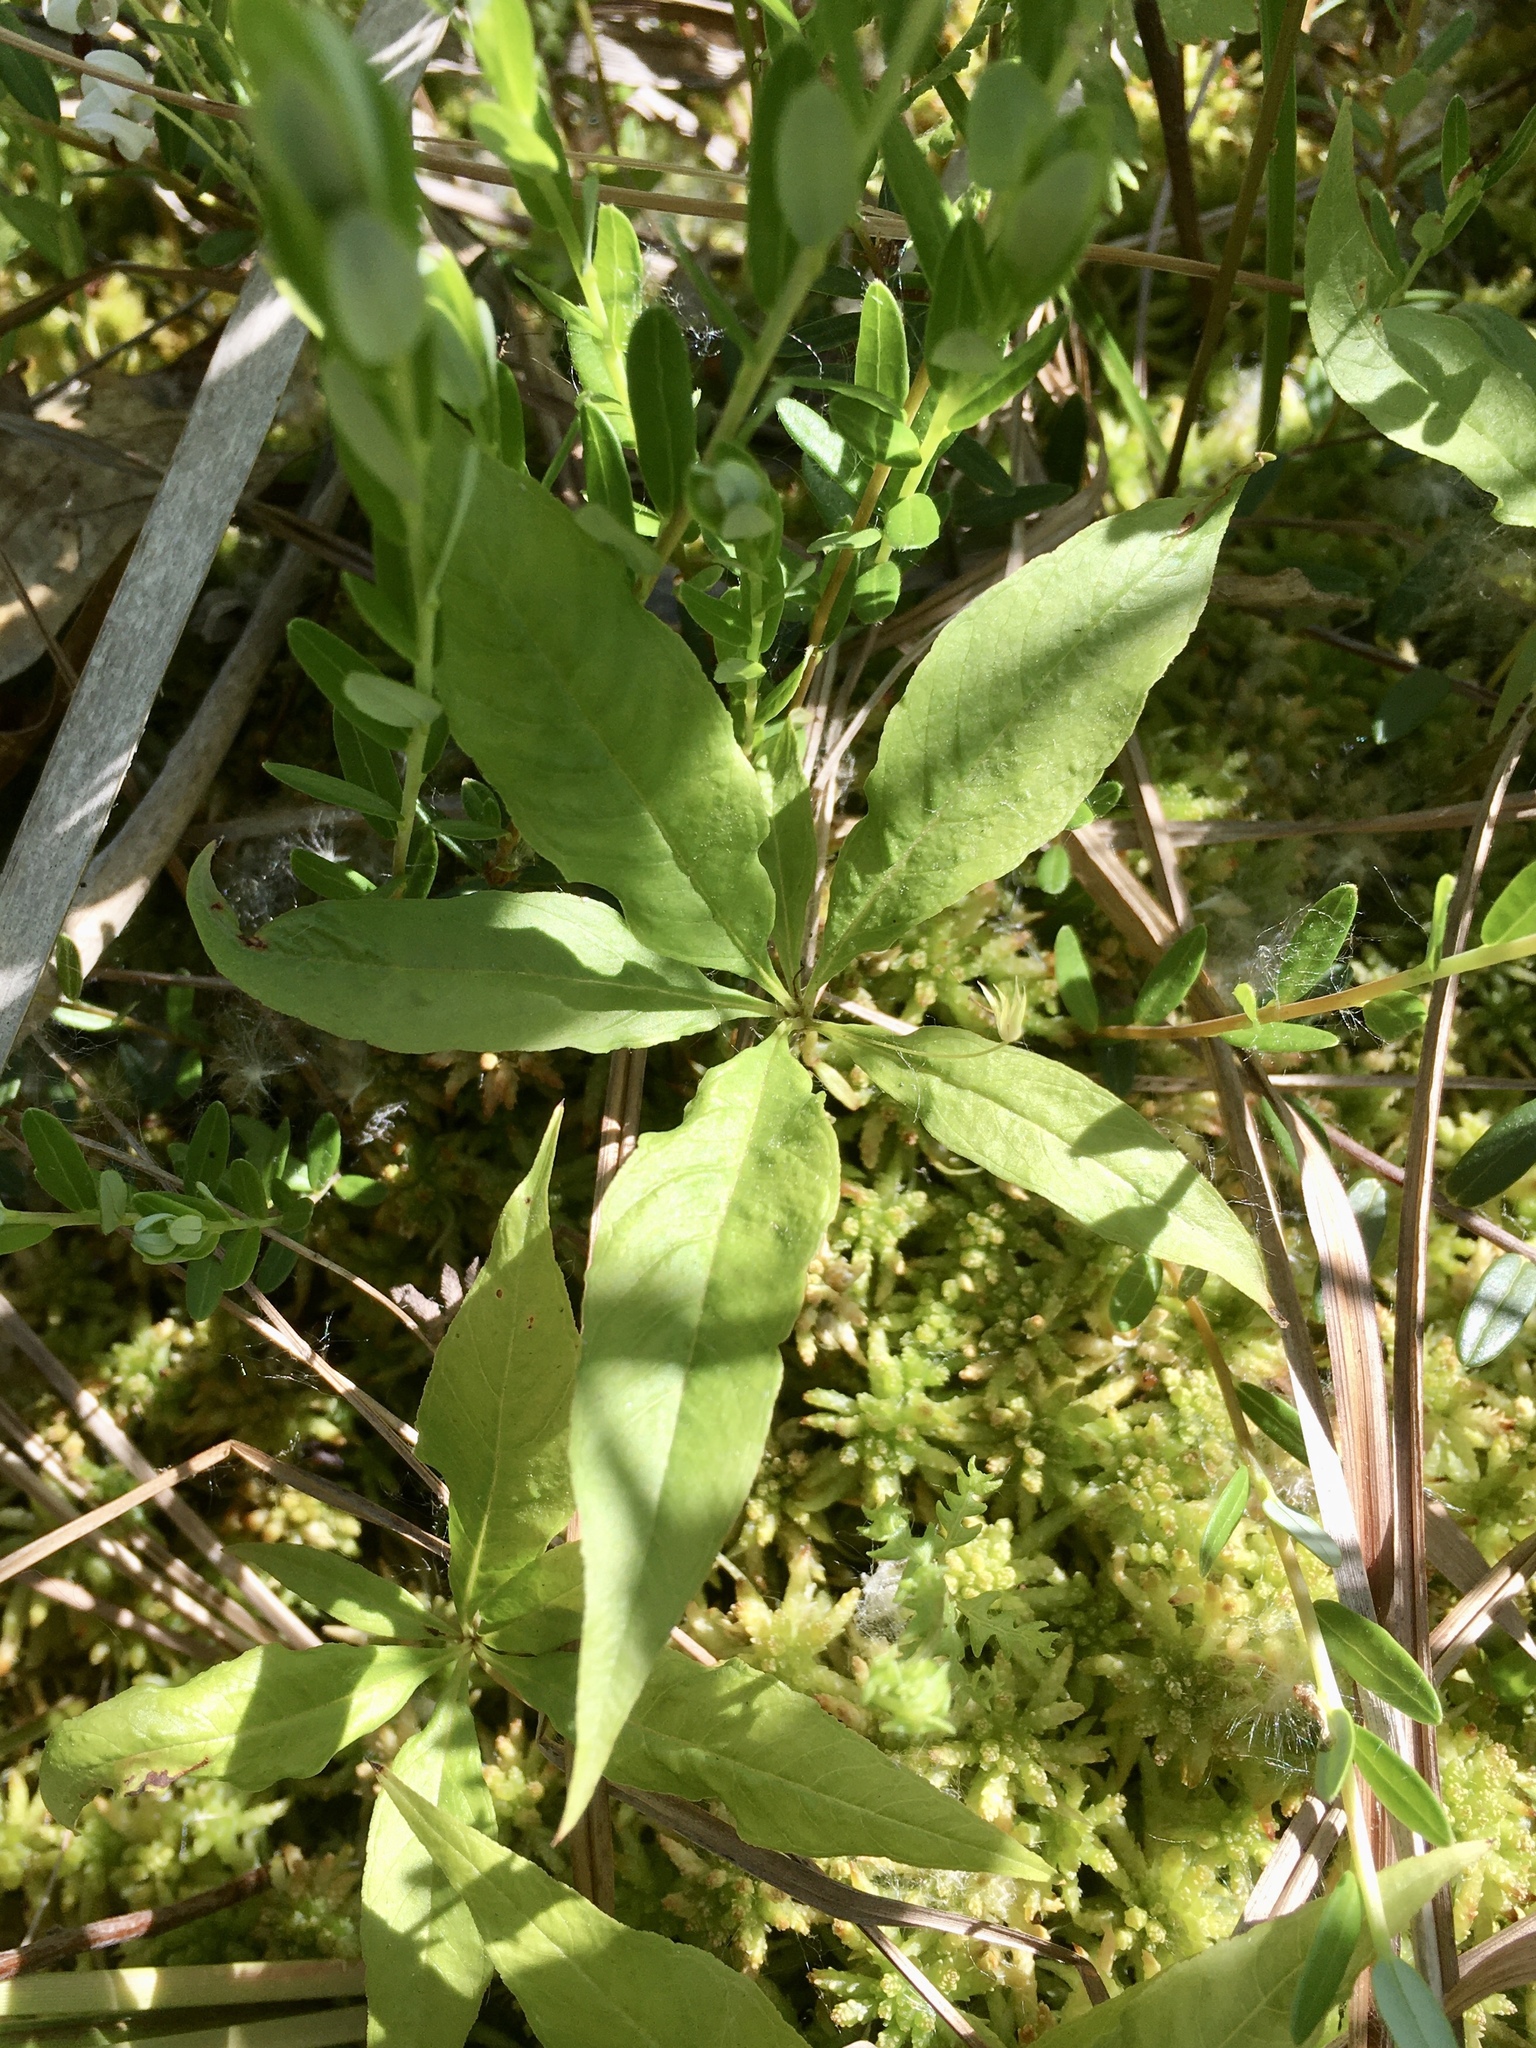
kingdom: Plantae
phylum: Tracheophyta
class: Magnoliopsida
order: Ericales
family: Primulaceae
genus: Lysimachia
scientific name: Lysimachia borealis
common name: American starflower
